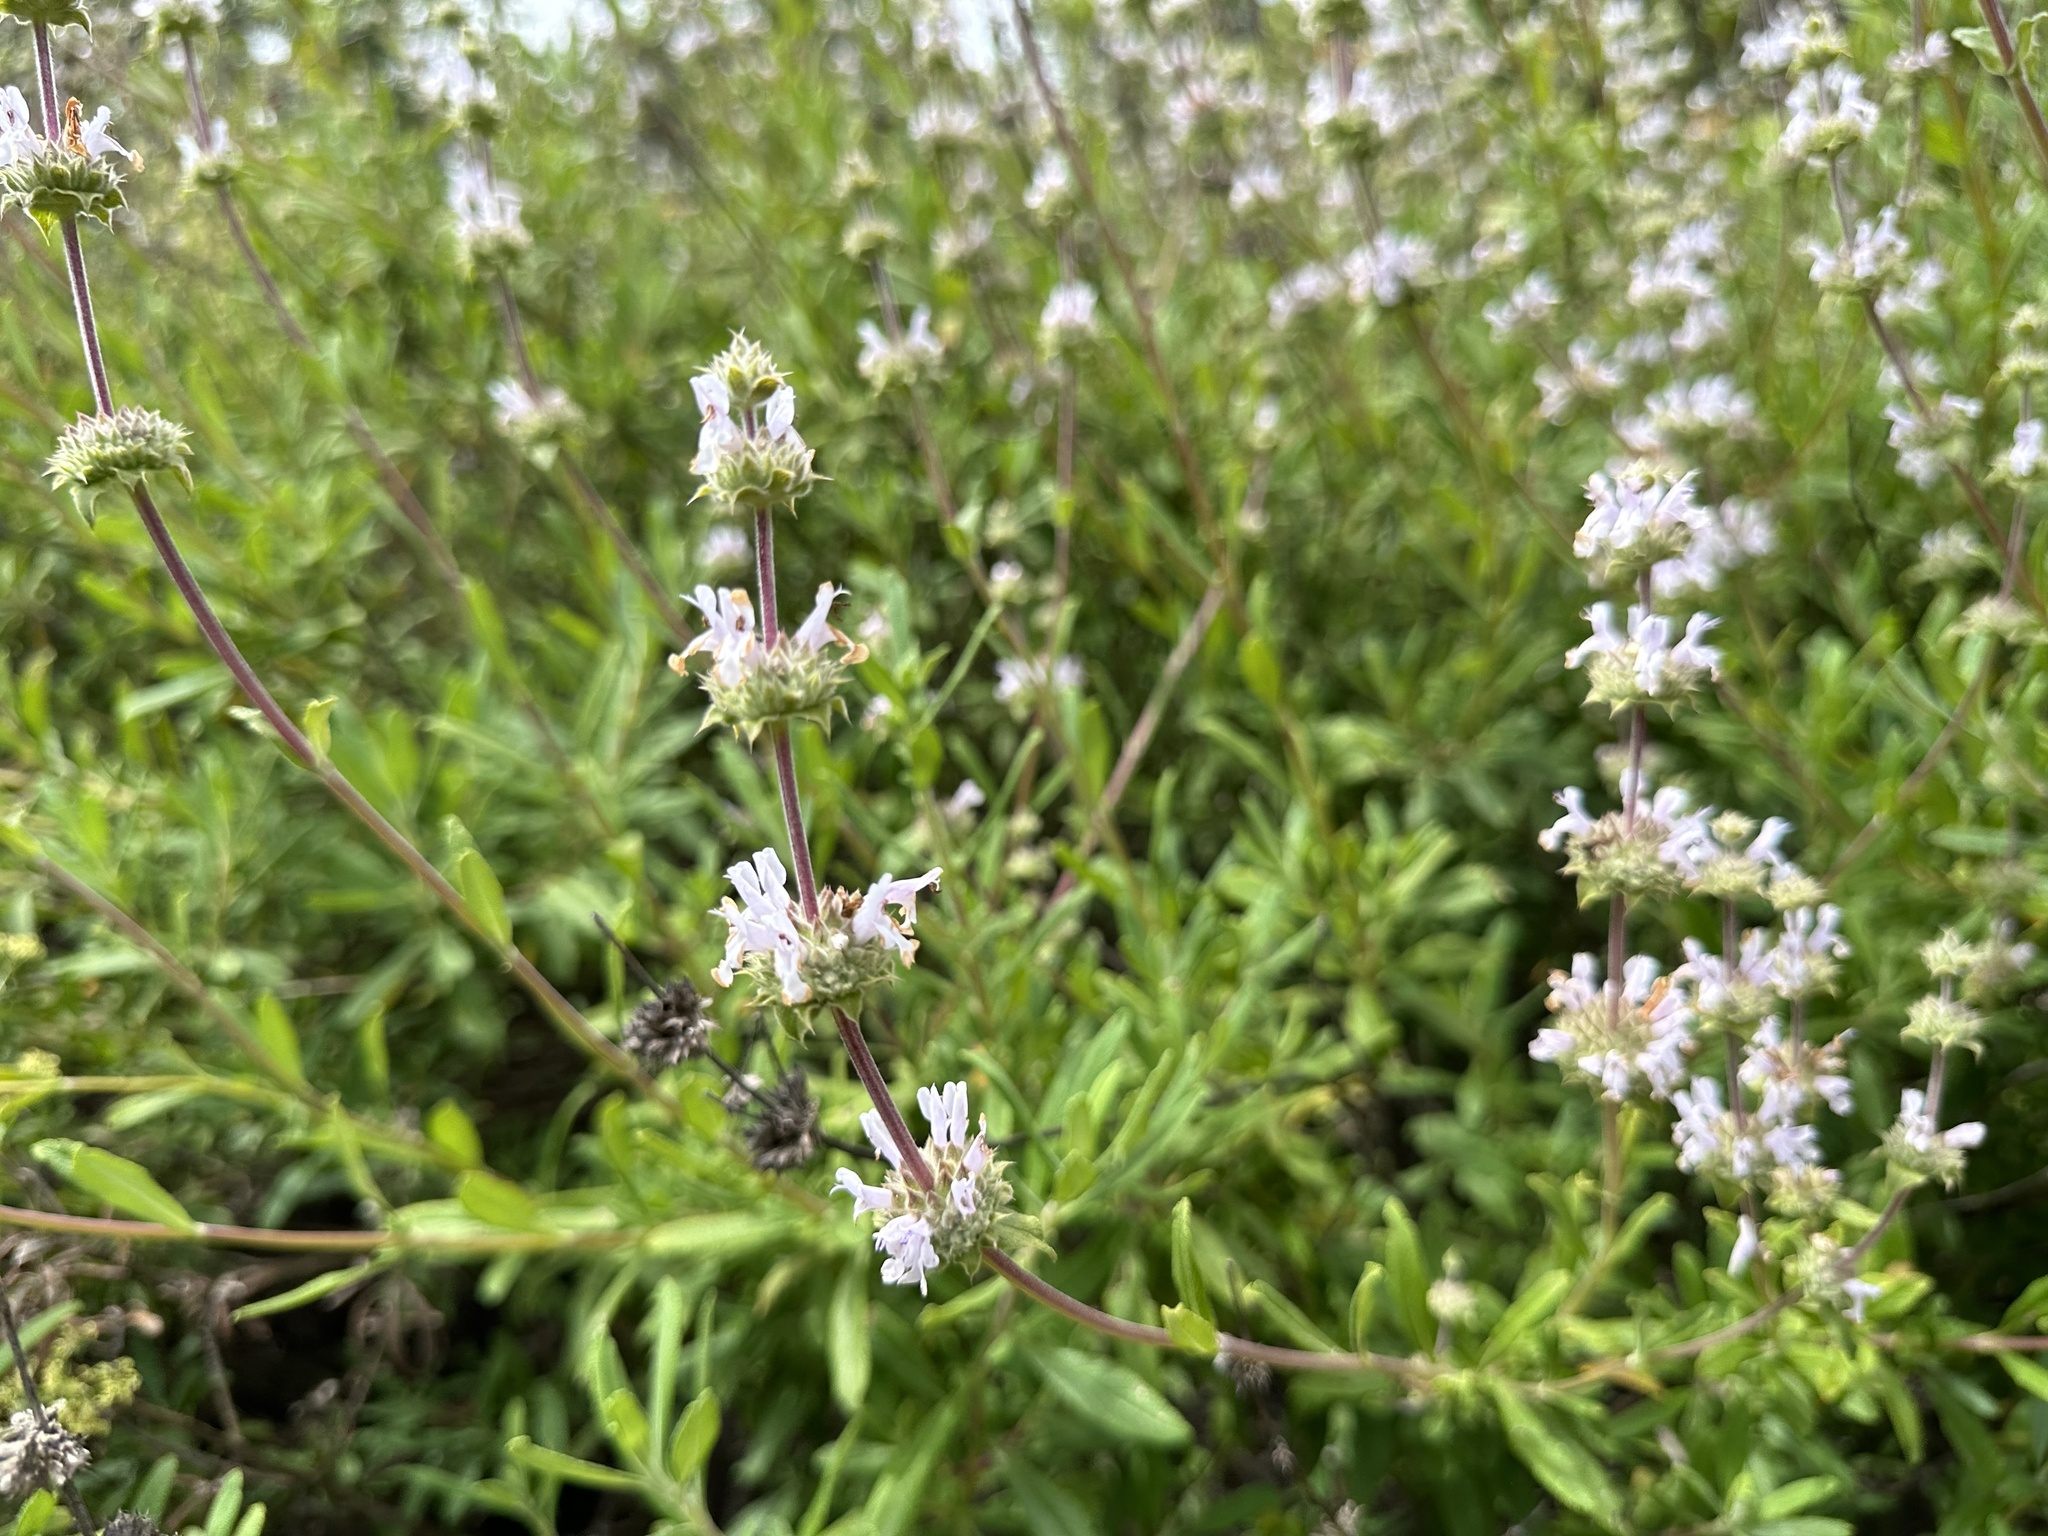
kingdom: Plantae
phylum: Tracheophyta
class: Magnoliopsida
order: Lamiales
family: Lamiaceae
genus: Salvia
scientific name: Salvia mellifera
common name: Black sage
